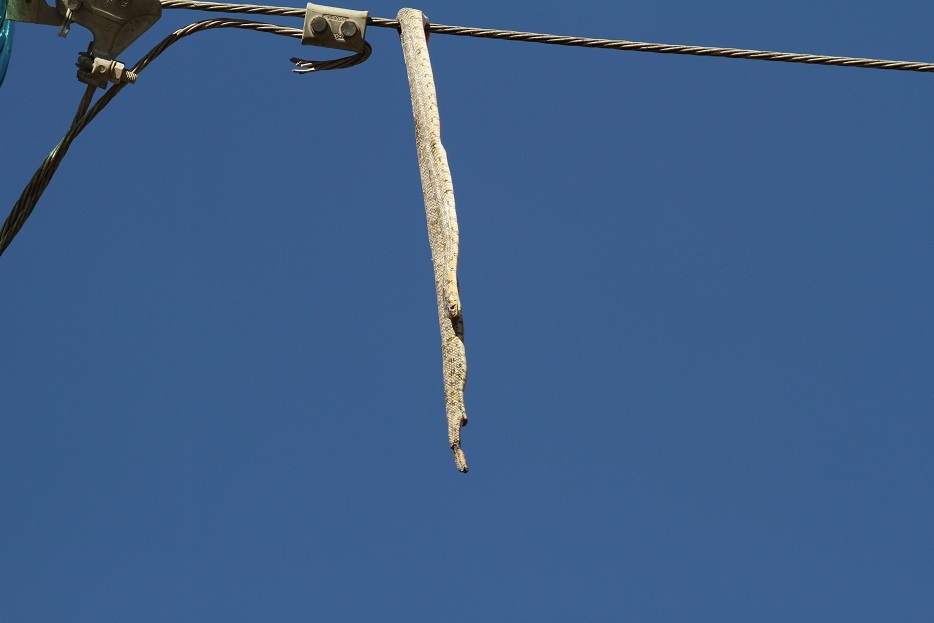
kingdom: Animalia
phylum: Chordata
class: Squamata
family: Colubridae
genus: Hemorrhois
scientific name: Hemorrhois hippocrepis
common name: Horseshoe whip snake
